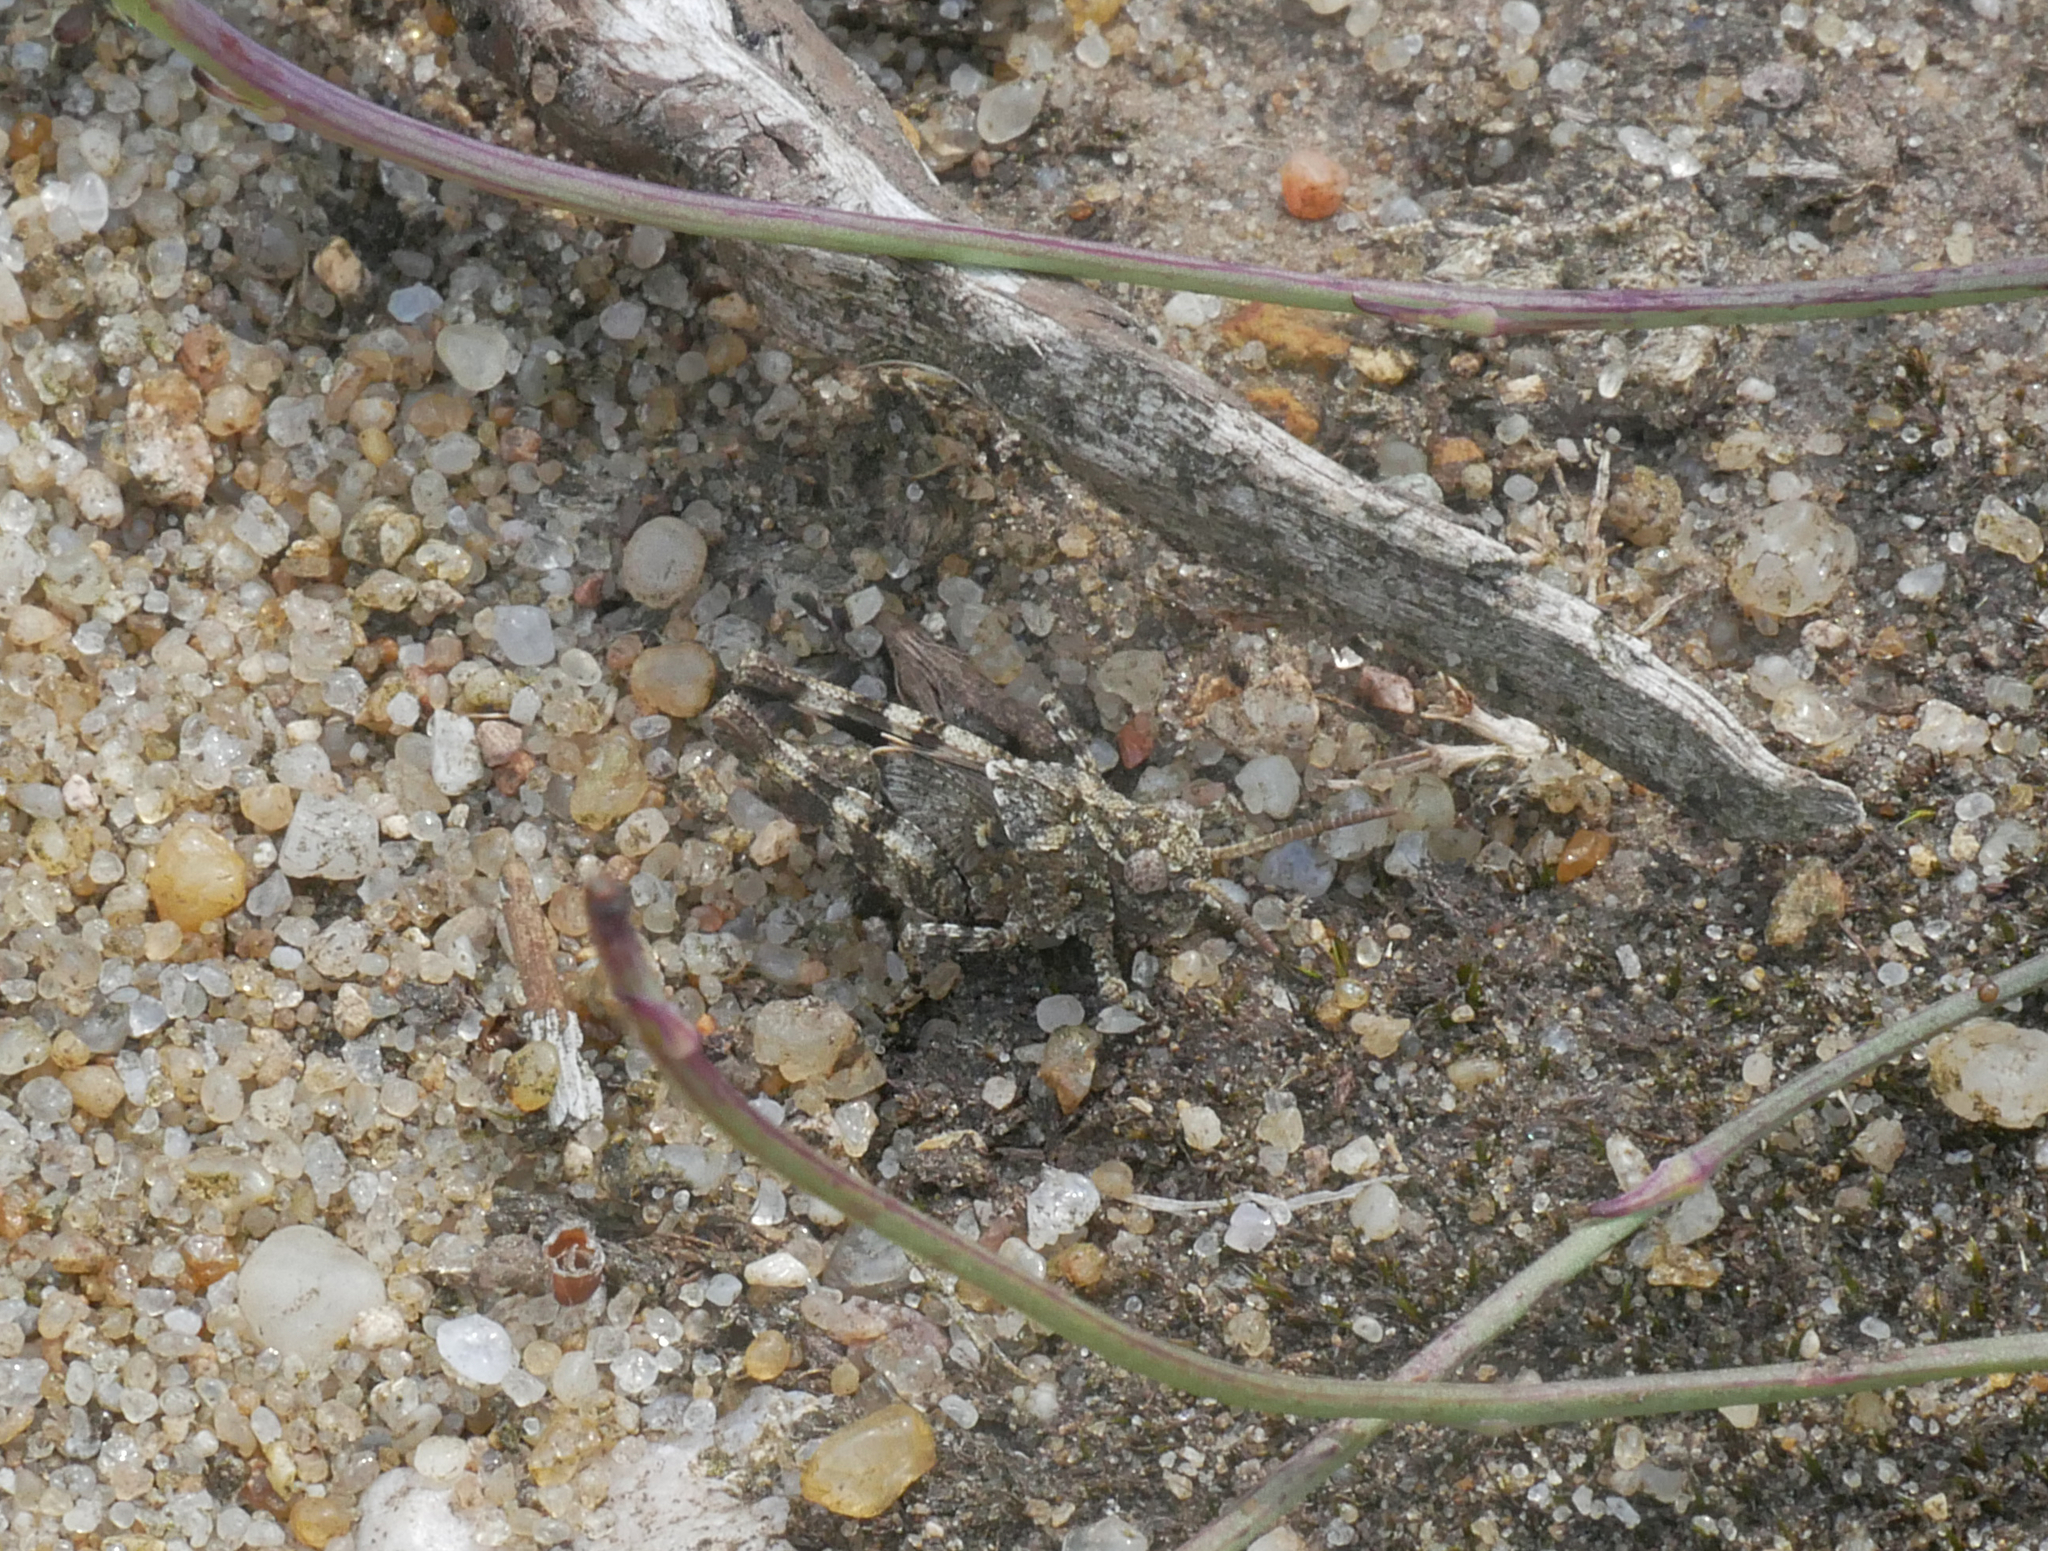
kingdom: Animalia
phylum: Arthropoda
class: Insecta
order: Orthoptera
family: Acrididae
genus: Oedipoda
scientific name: Oedipoda caerulescens
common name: Blue-winged grasshopper
